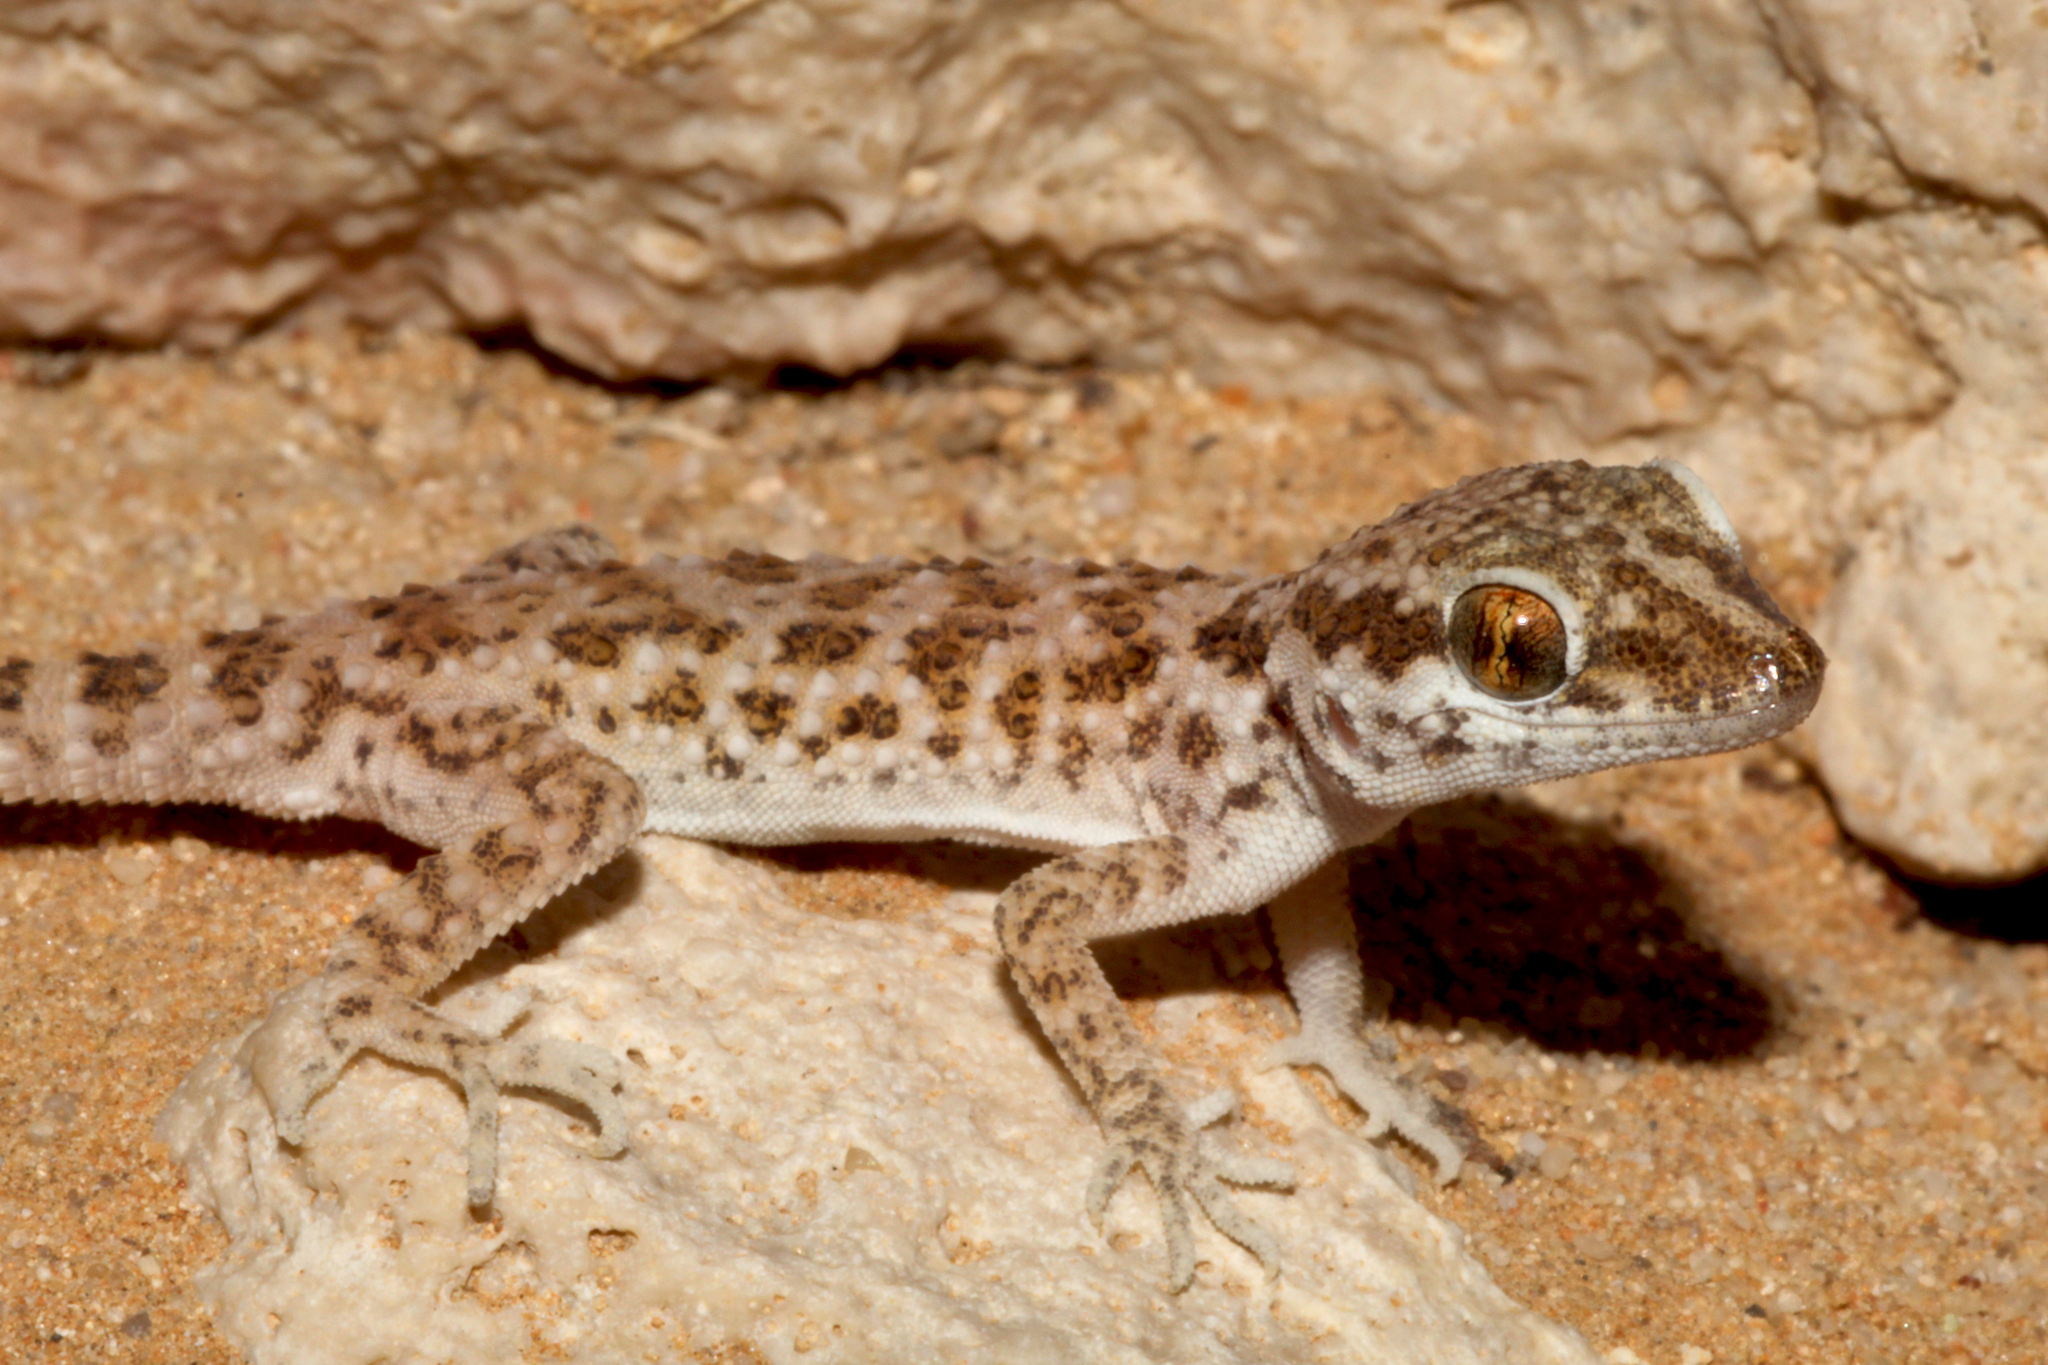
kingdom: Animalia
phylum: Chordata
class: Squamata
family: Gekkonidae
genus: Bunopus
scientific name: Bunopus tuberculatus
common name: Southern tuberculated gecko
